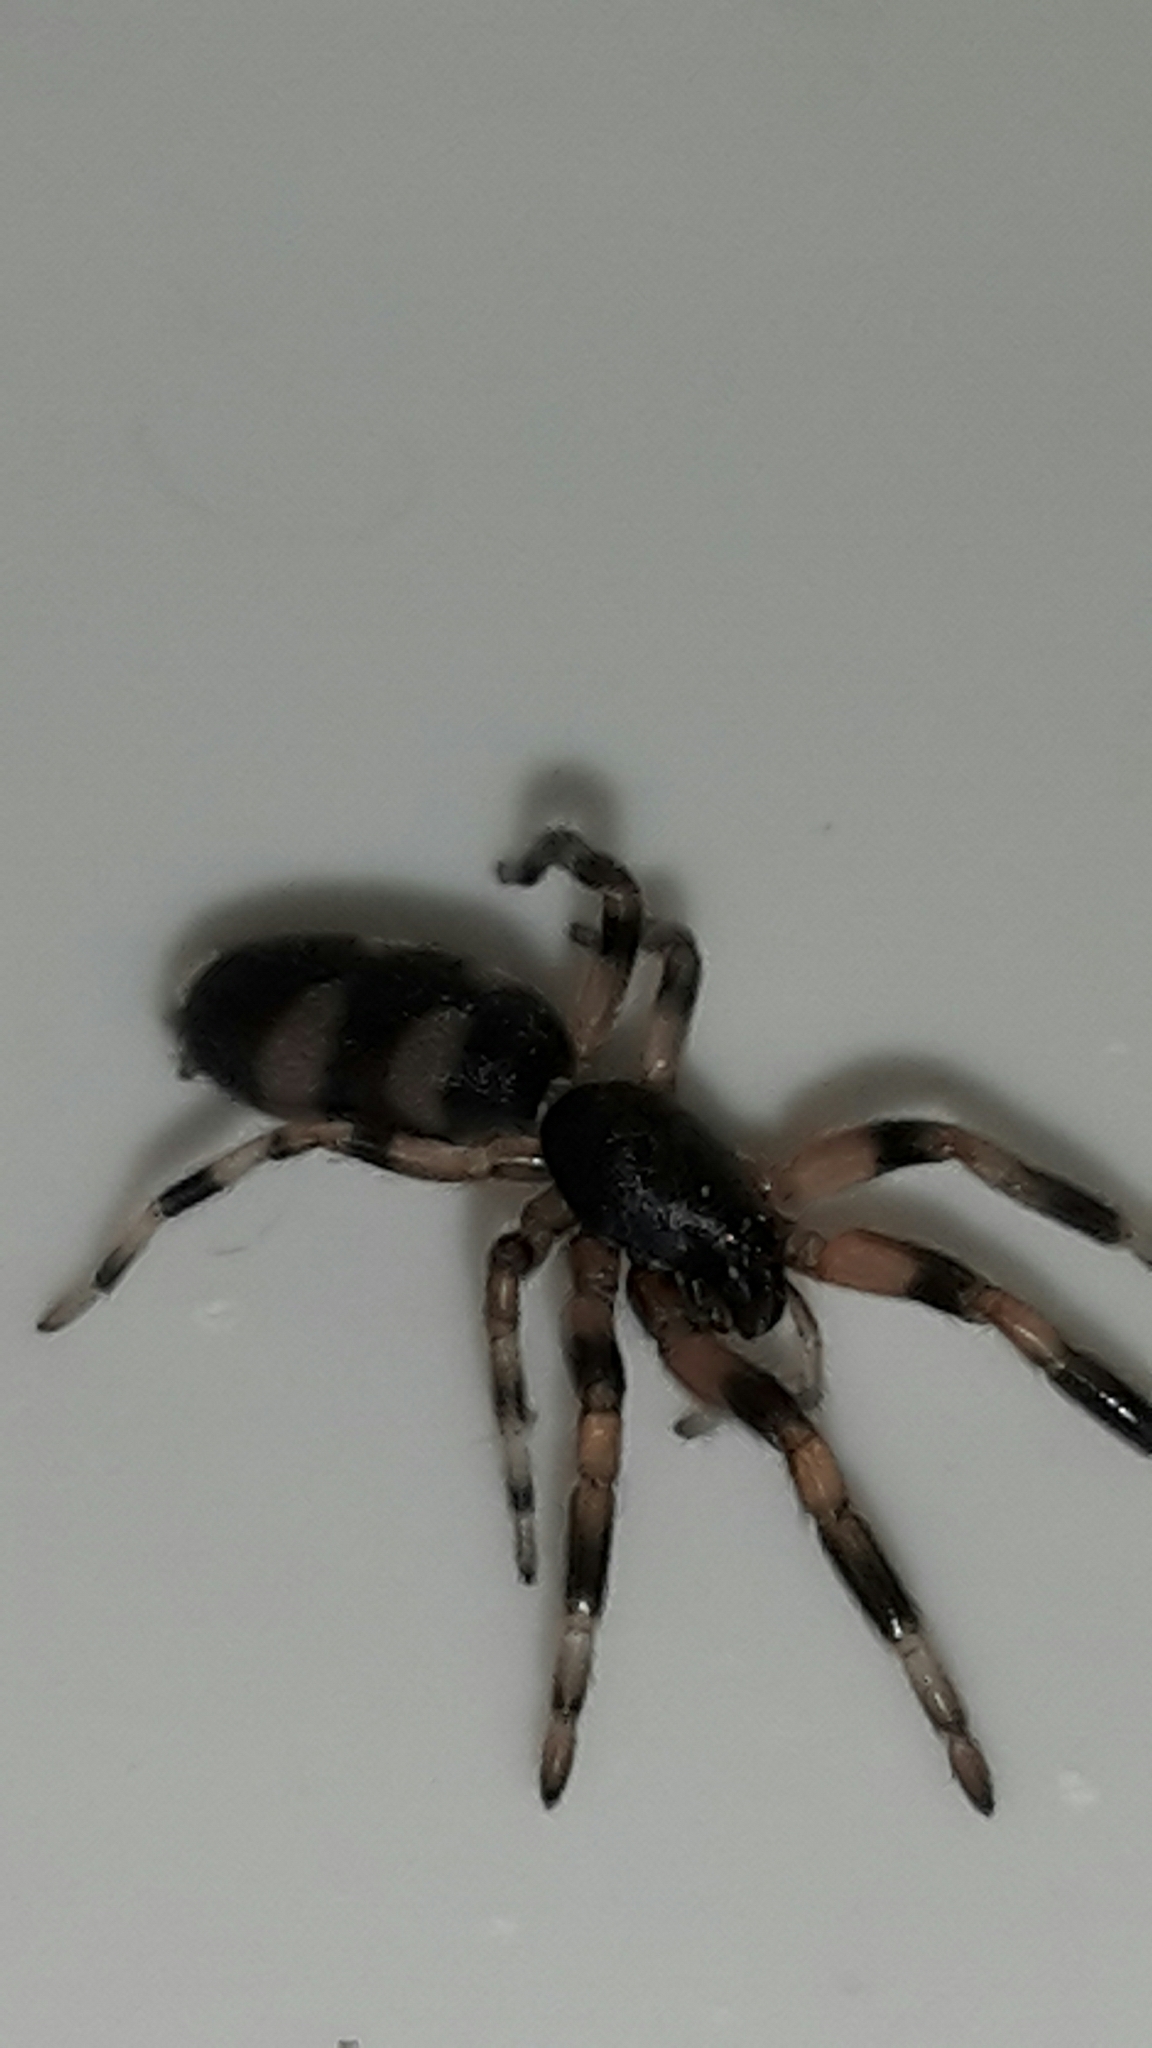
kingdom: Animalia
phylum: Arthropoda
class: Arachnida
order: Araneae
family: Lamponidae
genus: Lampona
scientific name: Lampona murina
